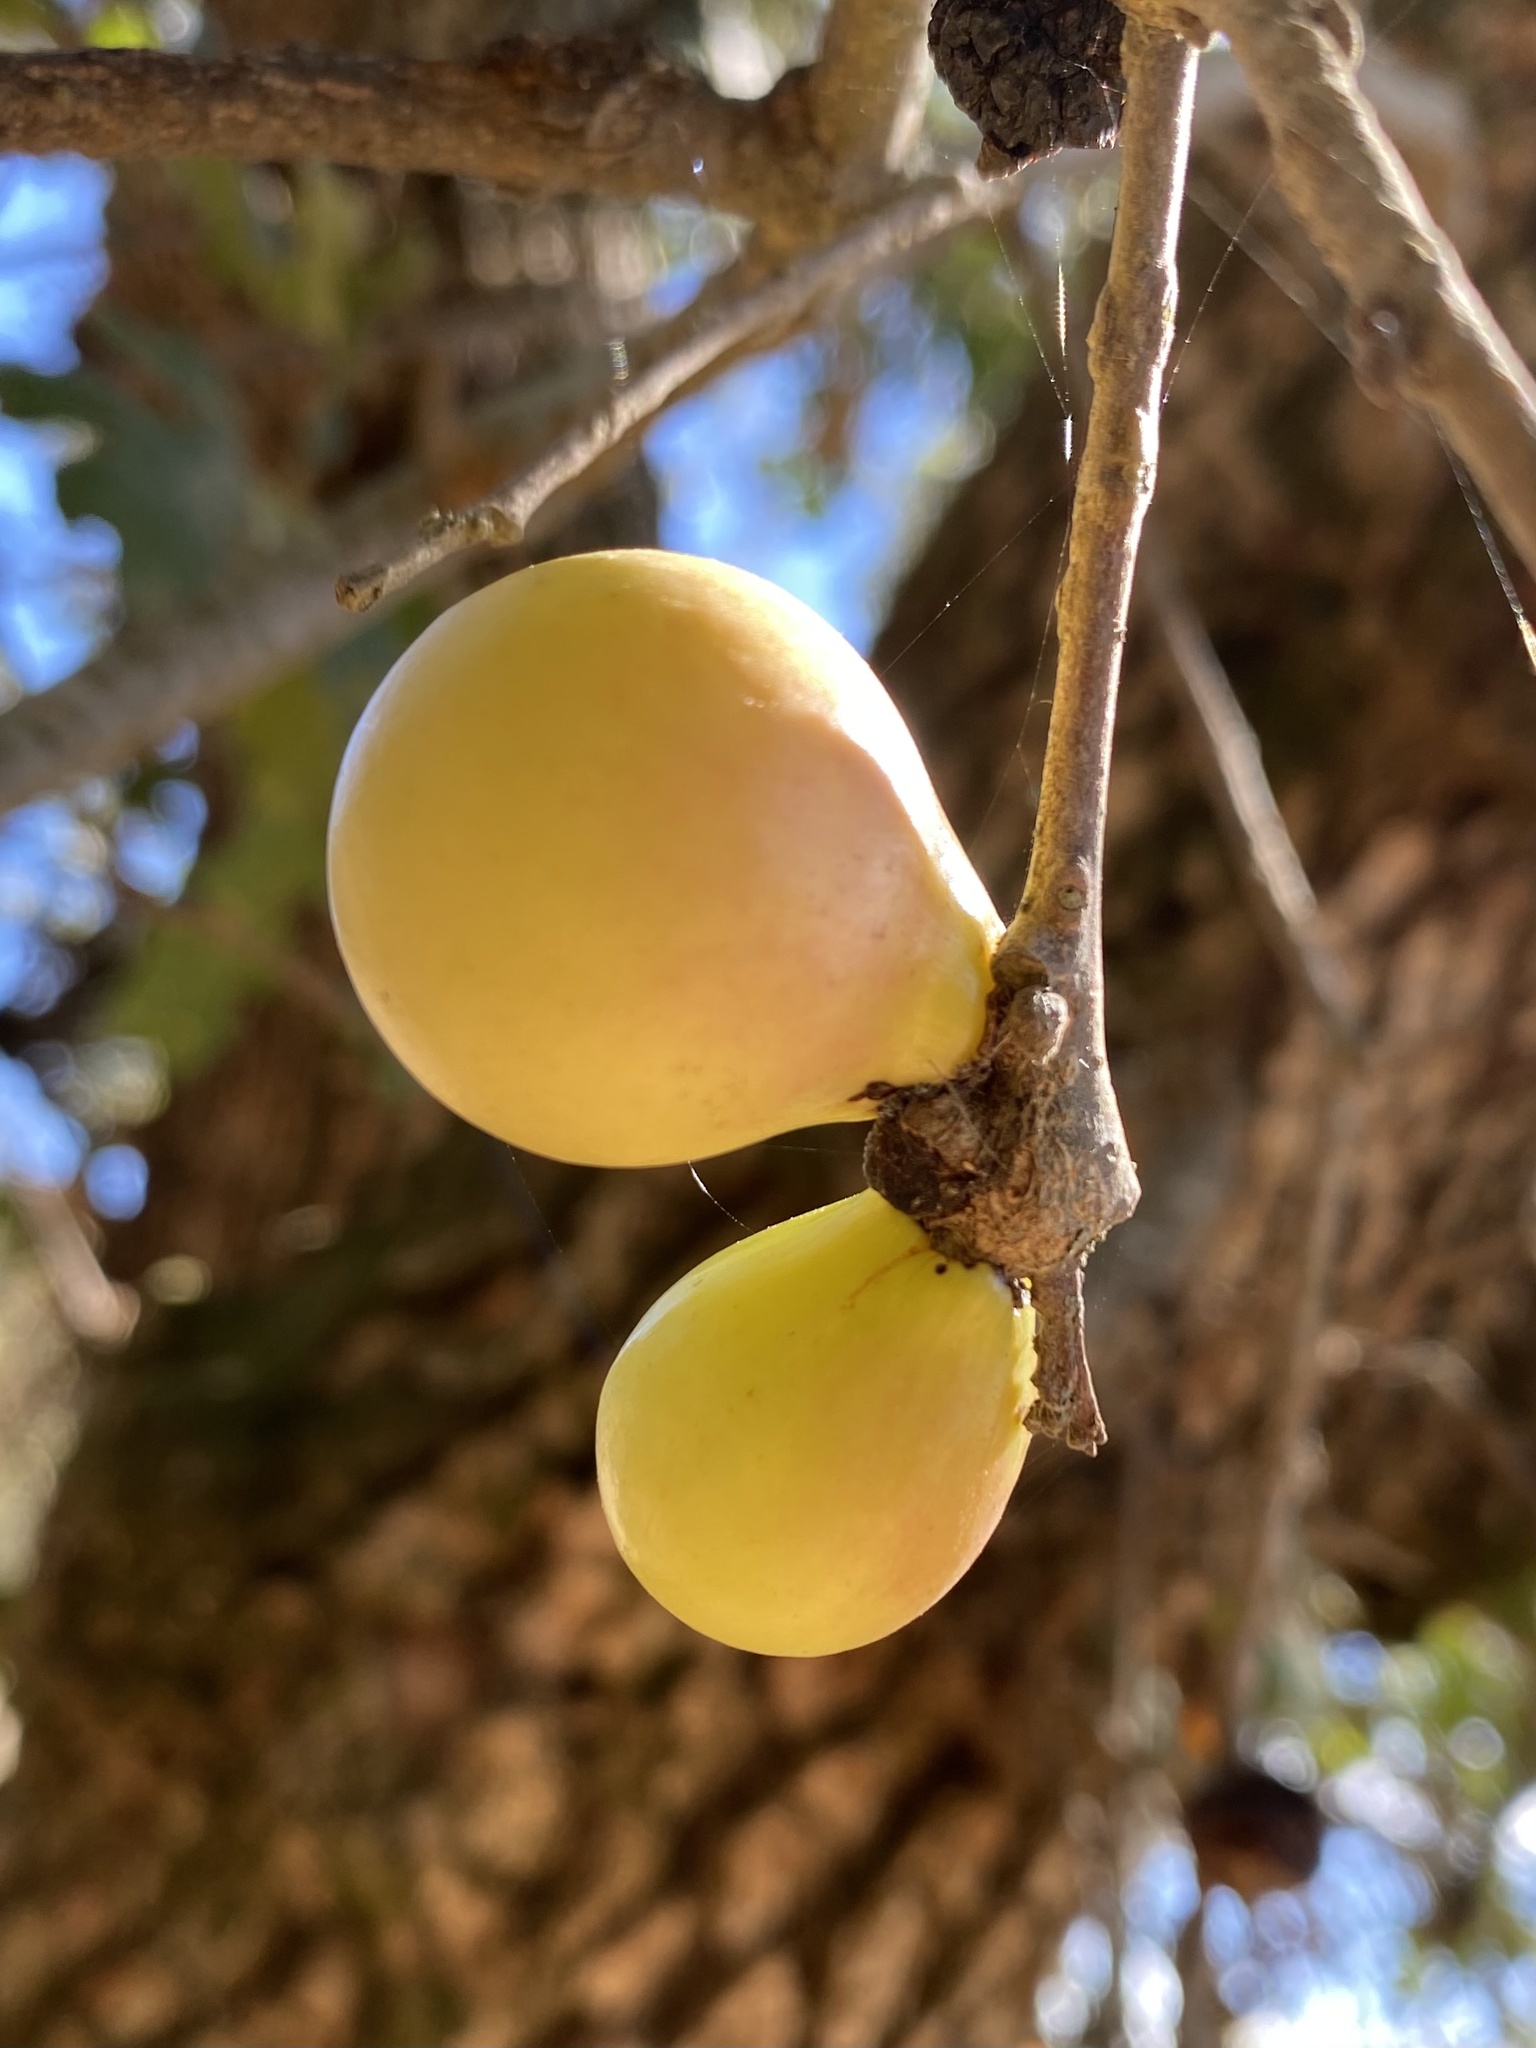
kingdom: Animalia
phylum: Arthropoda
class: Insecta
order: Hymenoptera
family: Cynipidae
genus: Andricus
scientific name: Andricus quercuscalifornicus
